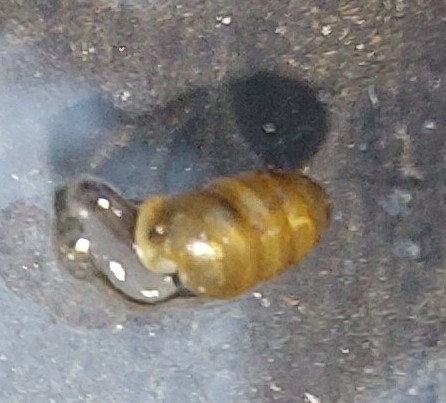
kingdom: Animalia
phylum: Mollusca
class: Gastropoda
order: Stylommatophora
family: Lauriidae
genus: Lauria
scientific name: Lauria cylindracea
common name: Common chrysalis snail
